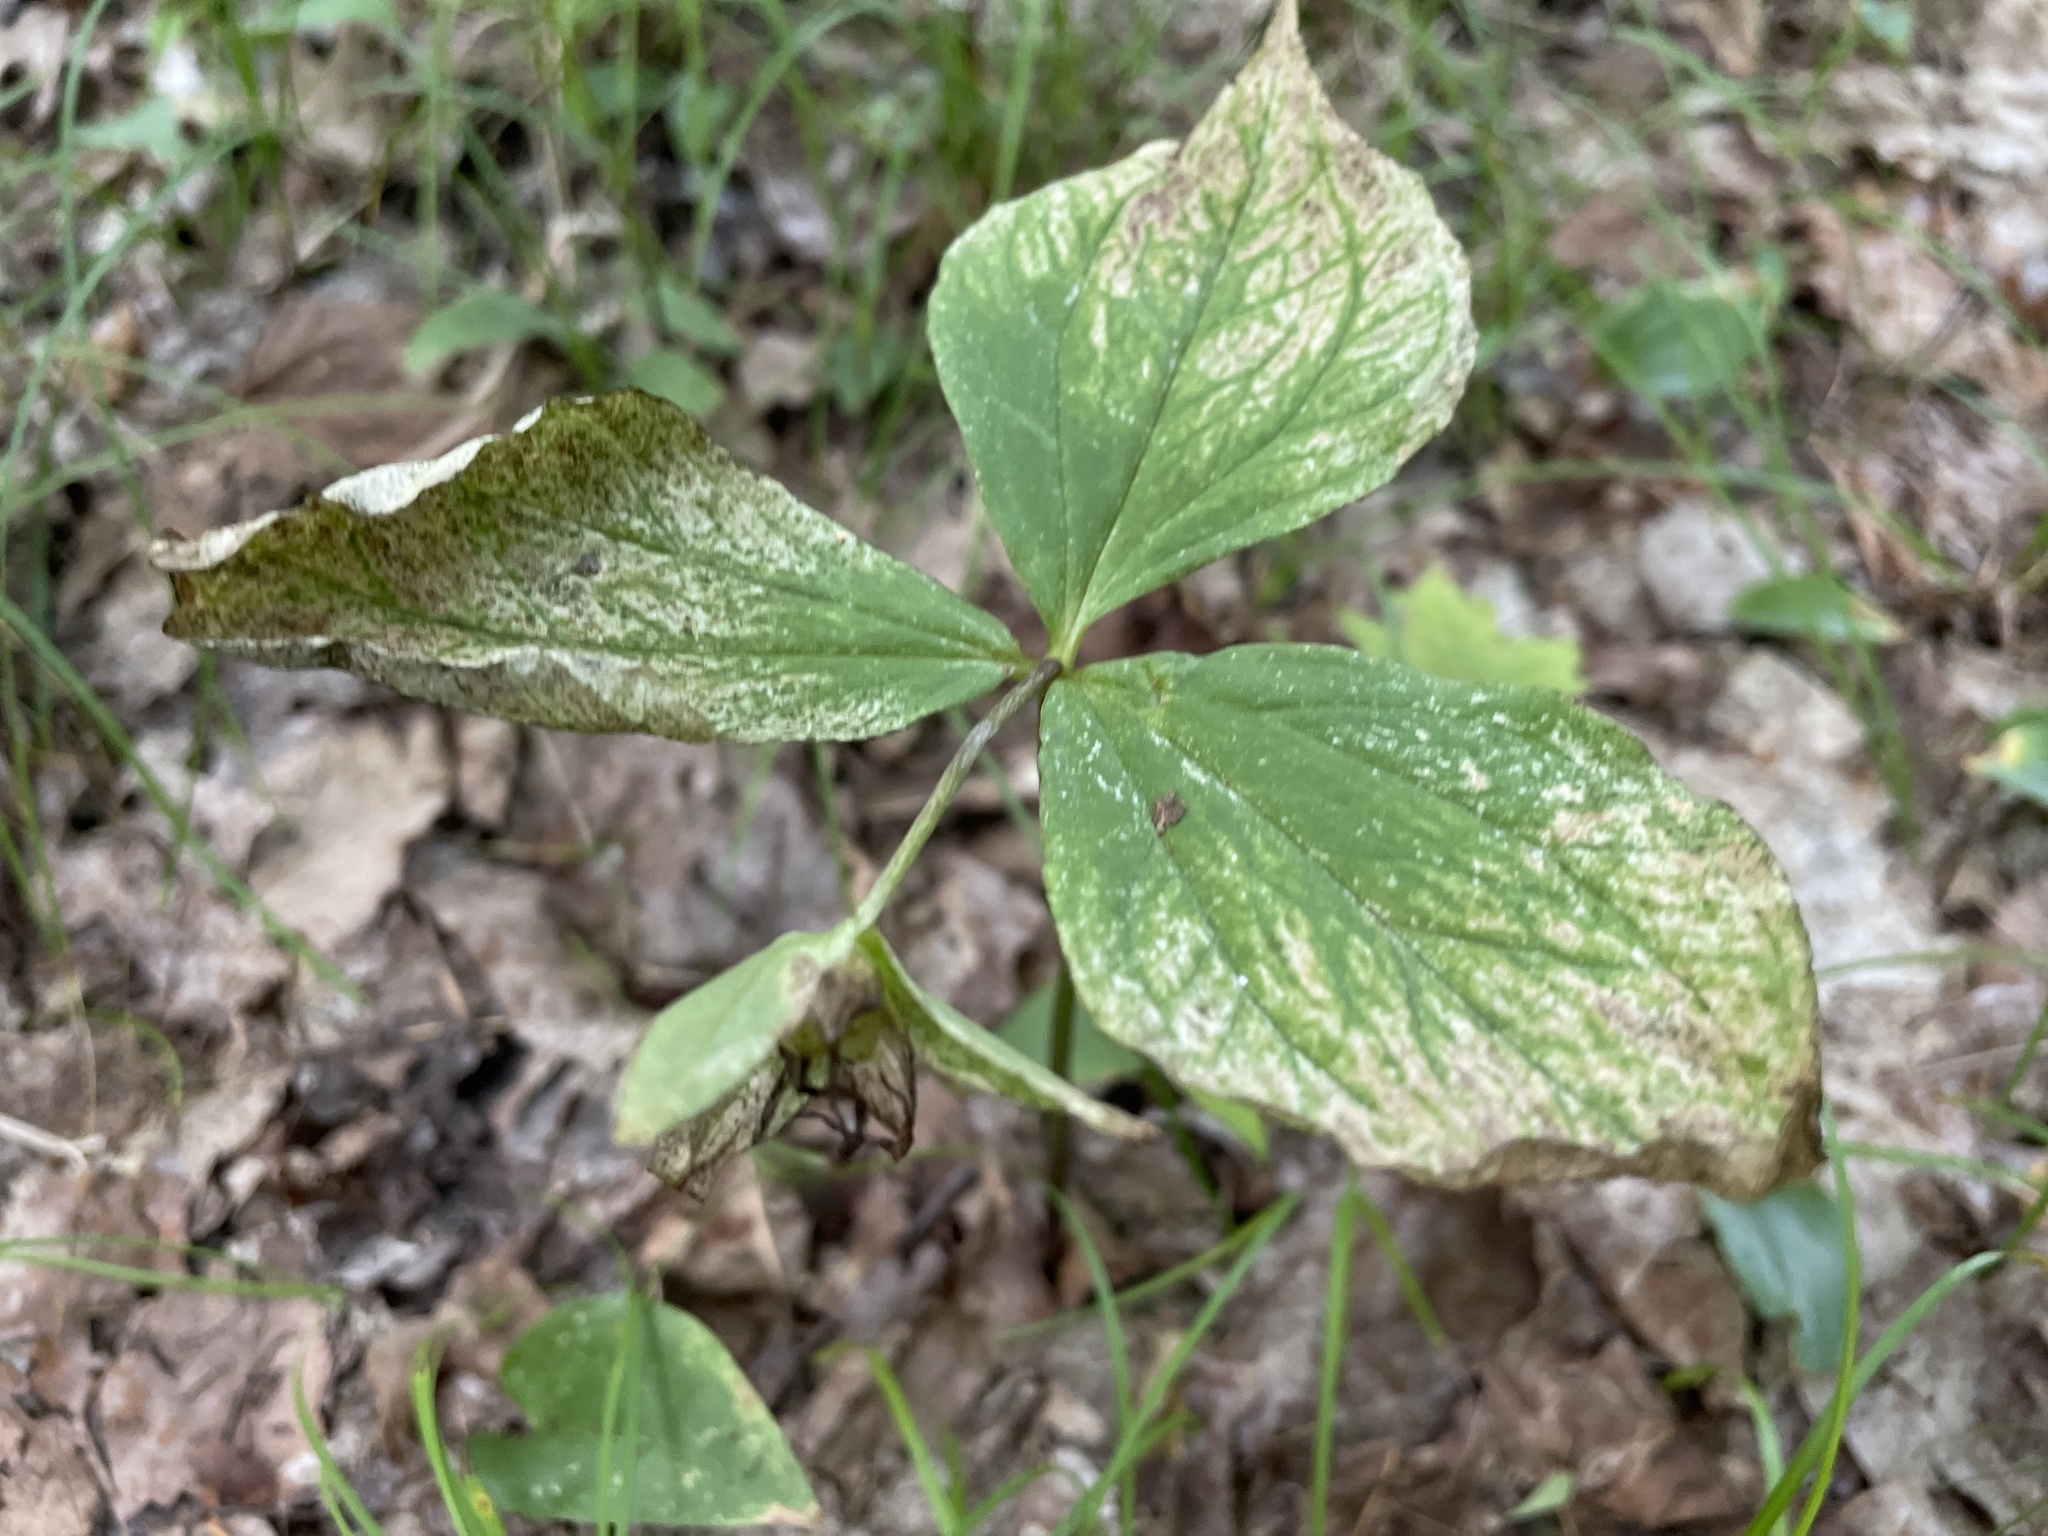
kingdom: Plantae
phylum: Tracheophyta
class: Liliopsida
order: Liliales
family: Melanthiaceae
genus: Trillium
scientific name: Trillium grandiflorum
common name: Great white trillium
